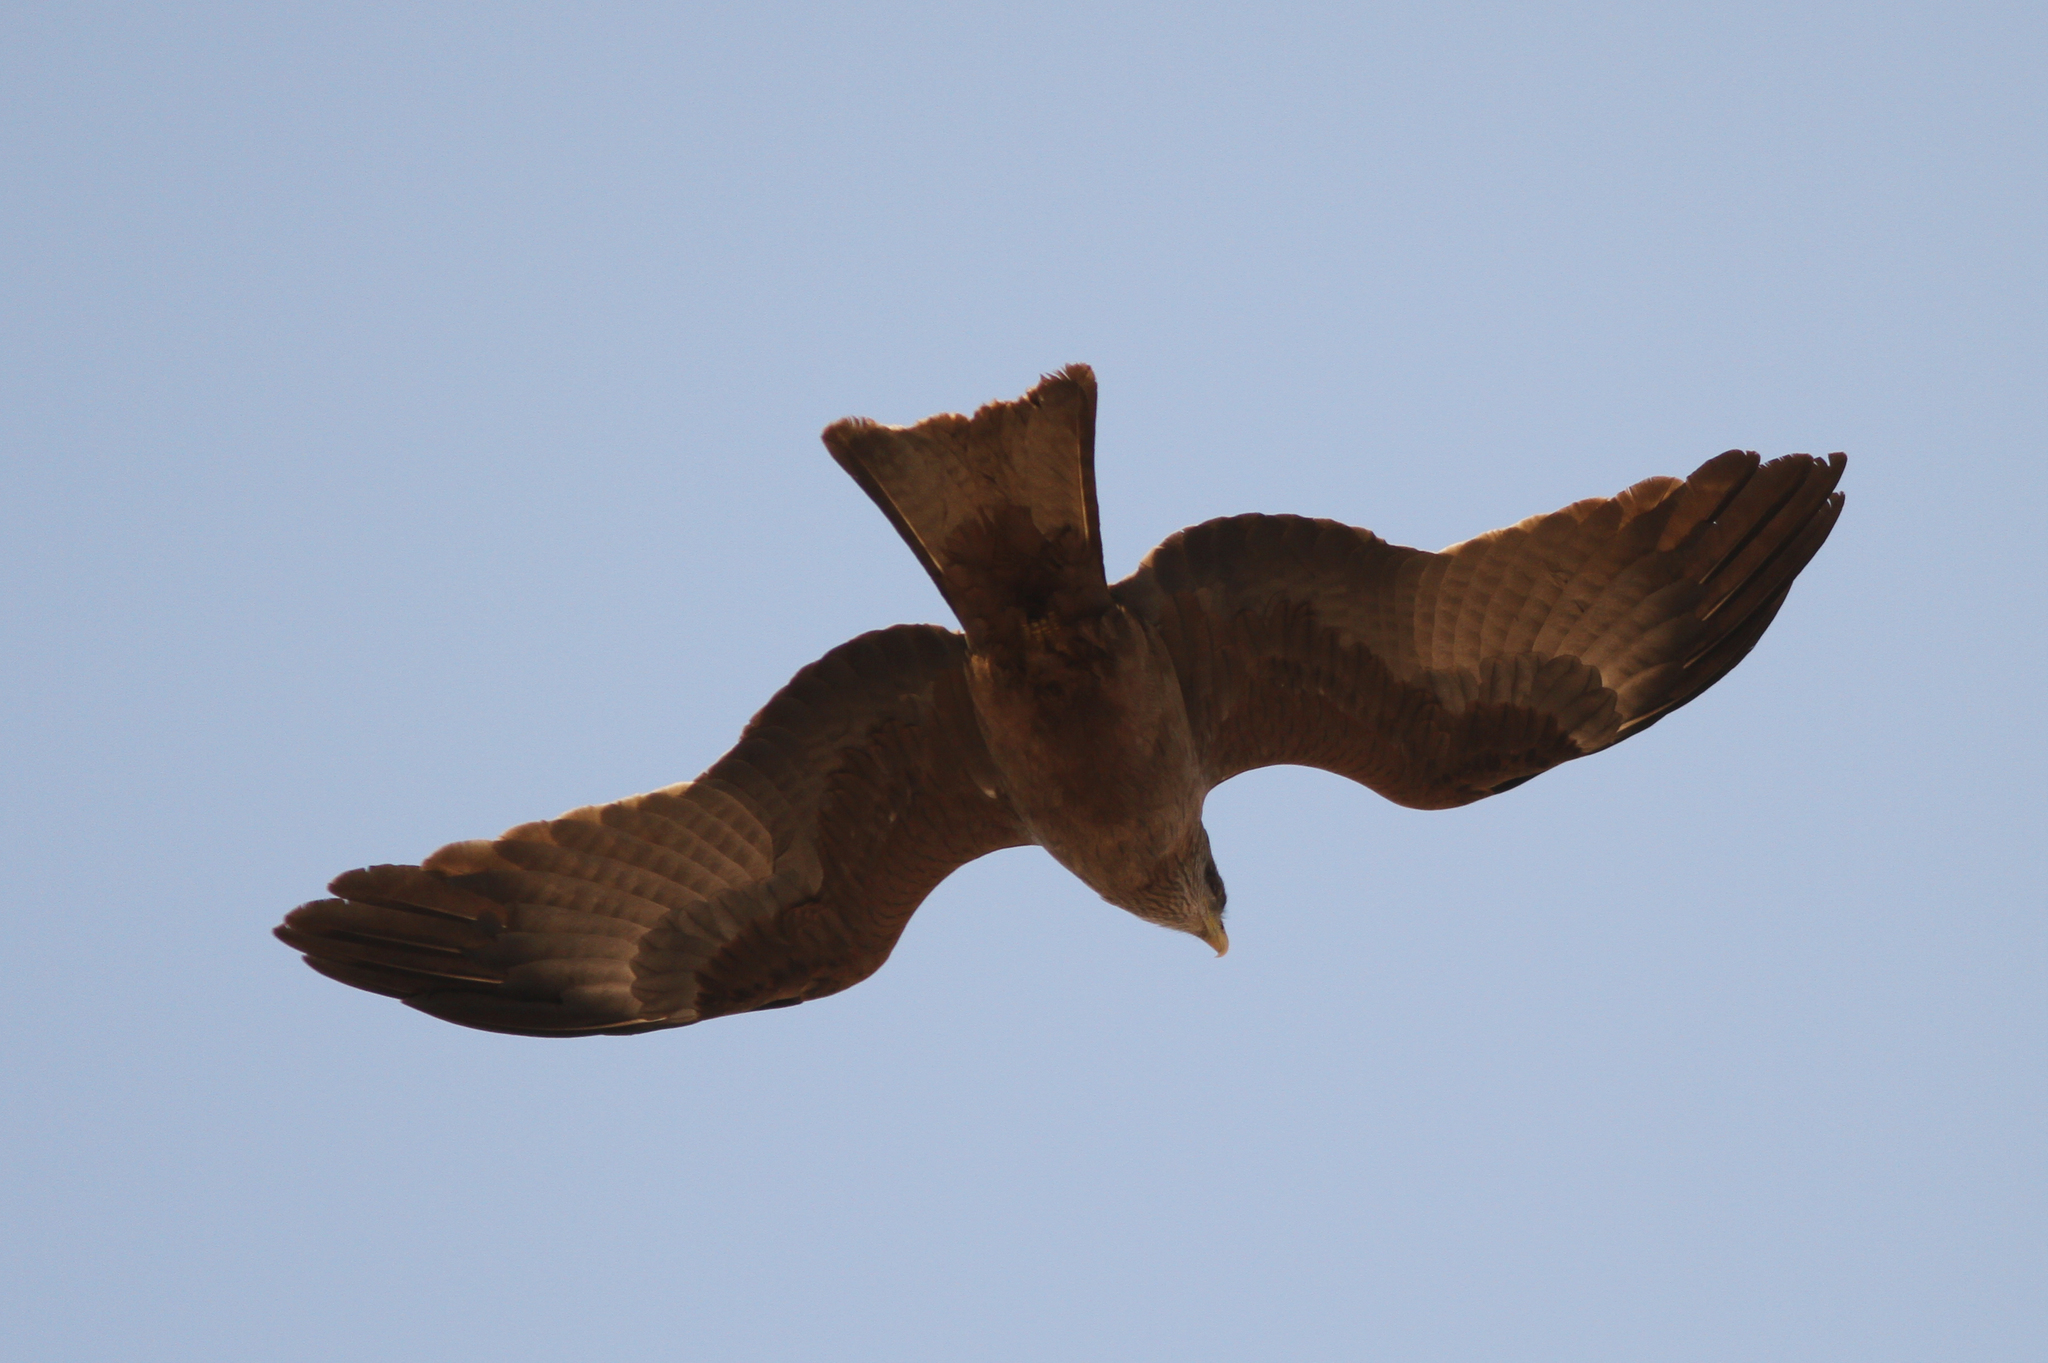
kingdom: Animalia
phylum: Chordata
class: Aves
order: Accipitriformes
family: Accipitridae
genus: Milvus
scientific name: Milvus migrans
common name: Black kite
